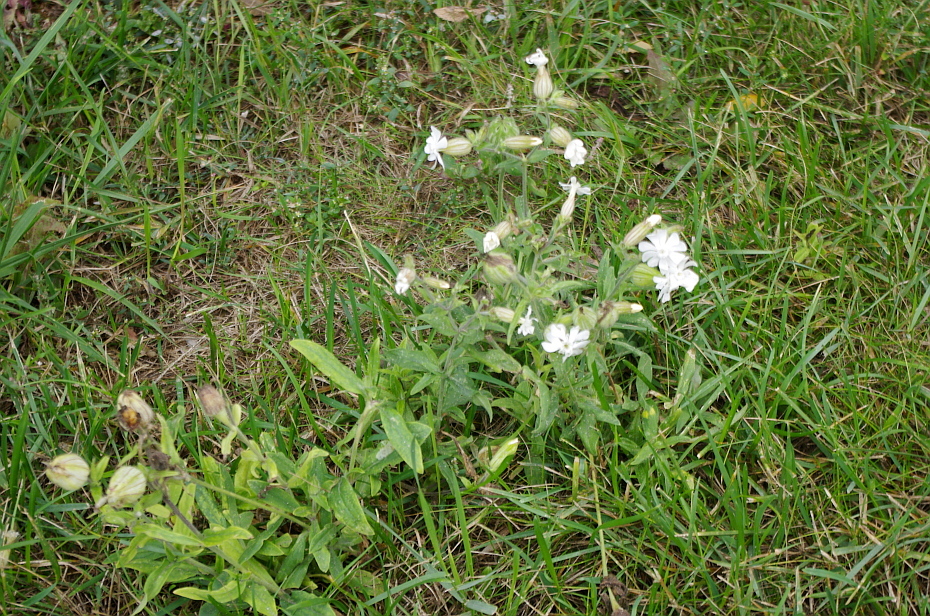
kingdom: Plantae
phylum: Tracheophyta
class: Magnoliopsida
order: Caryophyllales
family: Caryophyllaceae
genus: Silene
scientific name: Silene latifolia
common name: White campion
